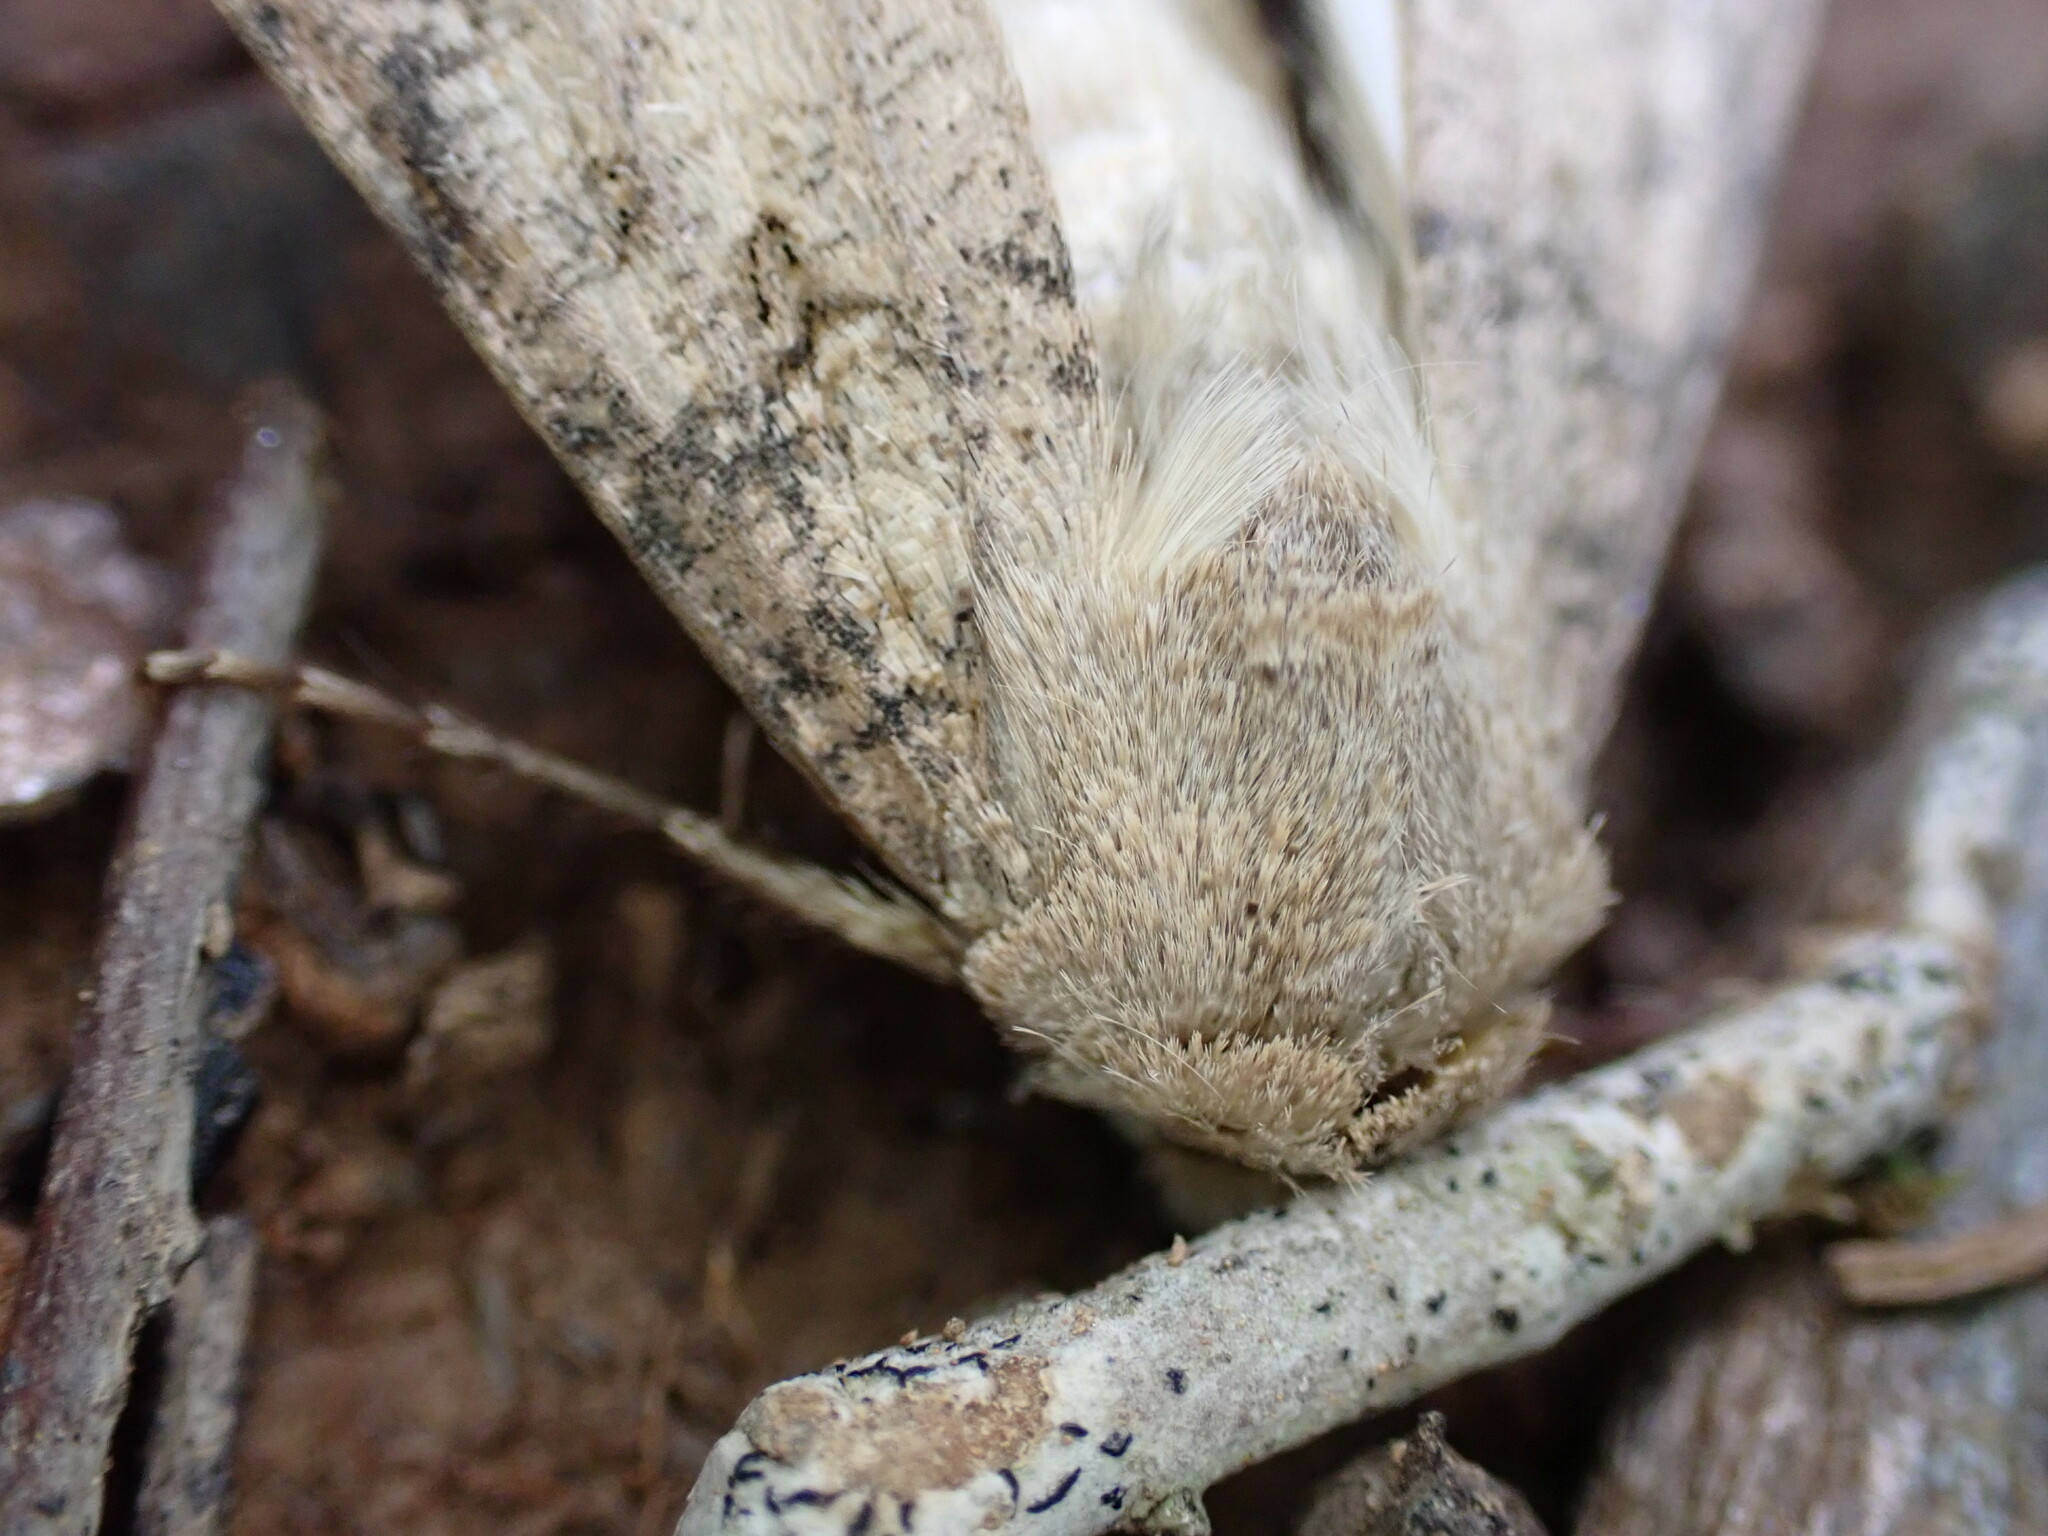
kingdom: Animalia
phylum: Arthropoda
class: Insecta
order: Lepidoptera
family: Noctuidae
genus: Agrotis
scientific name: Agrotis segetum
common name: Turnip moth
